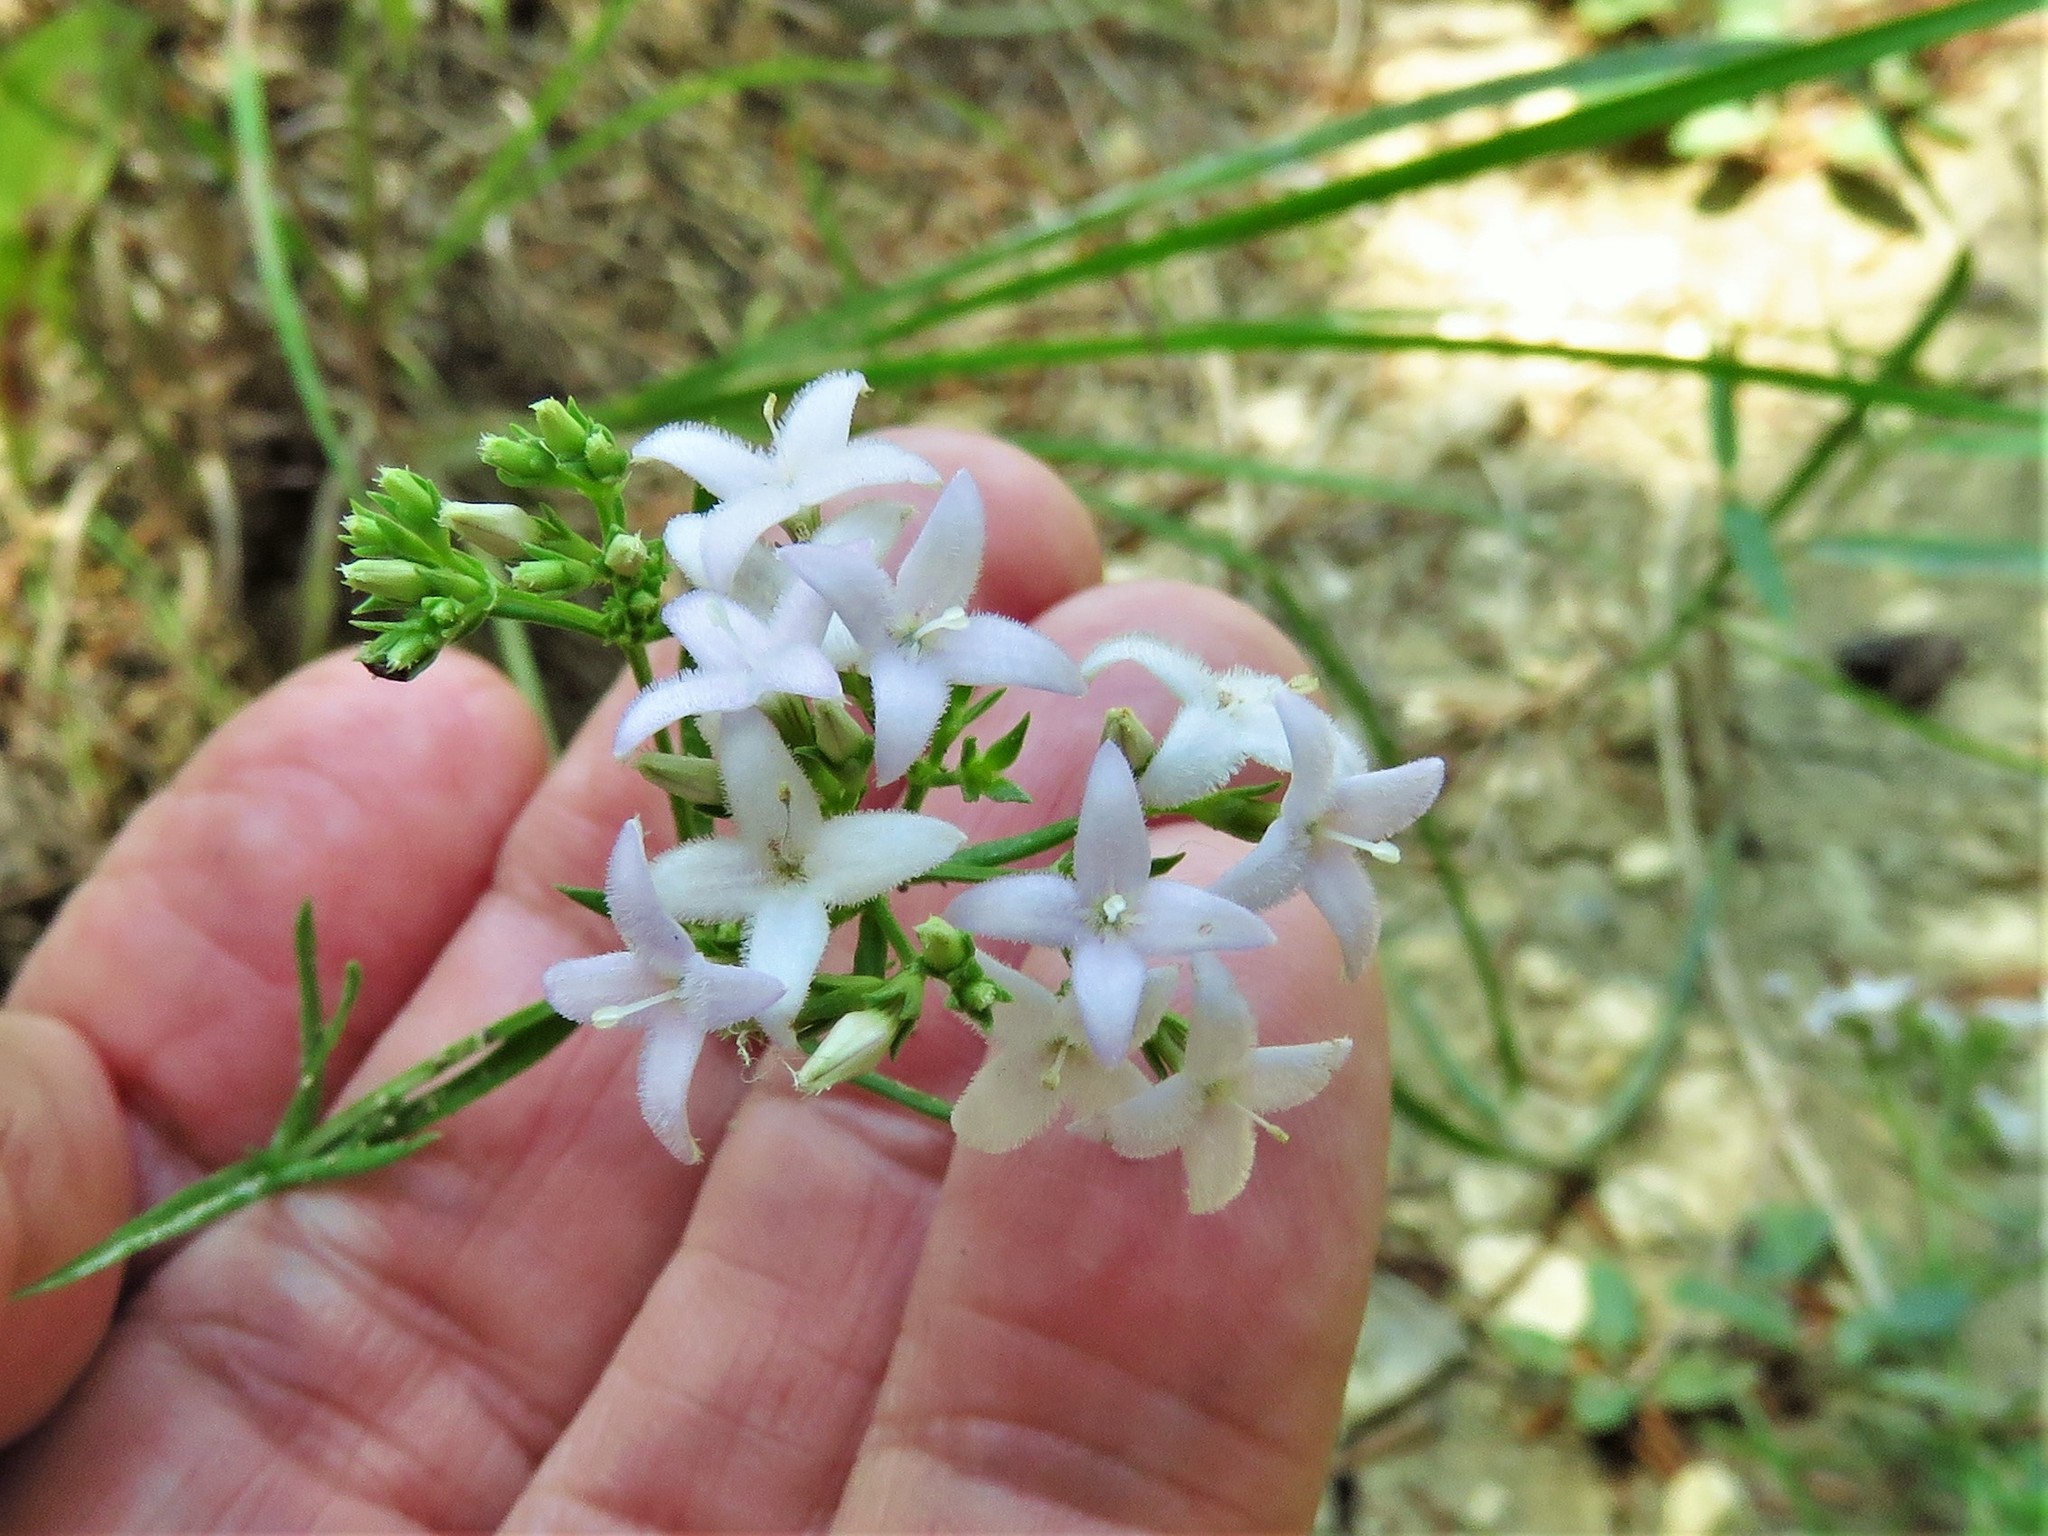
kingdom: Plantae
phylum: Tracheophyta
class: Magnoliopsida
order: Gentianales
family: Rubiaceae
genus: Stenaria
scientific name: Stenaria nigricans
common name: Diamondflowers
